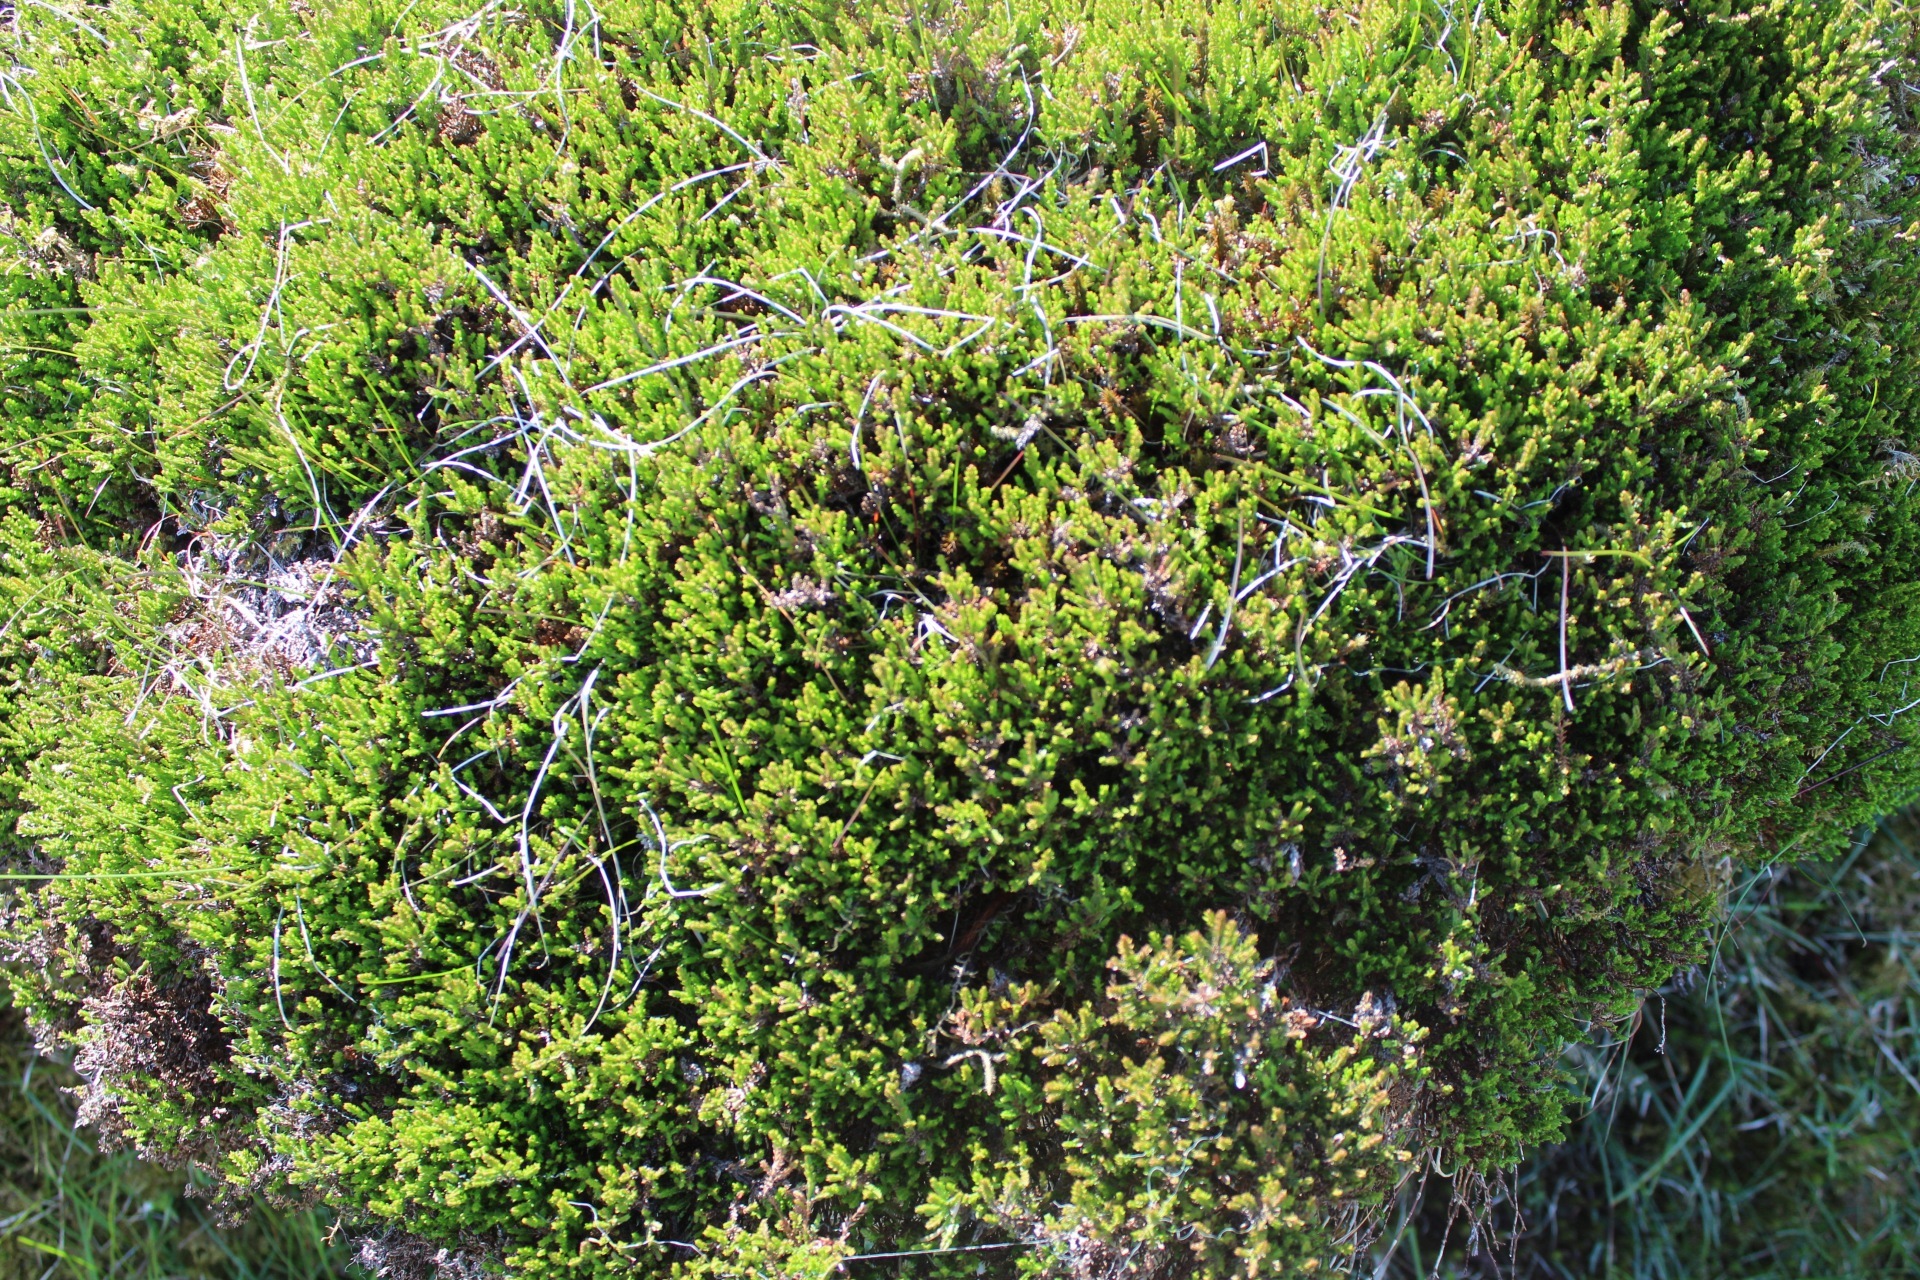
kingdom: Plantae
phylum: Tracheophyta
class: Magnoliopsida
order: Ericales
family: Ericaceae
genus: Calluna
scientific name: Calluna vulgaris
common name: Heather
